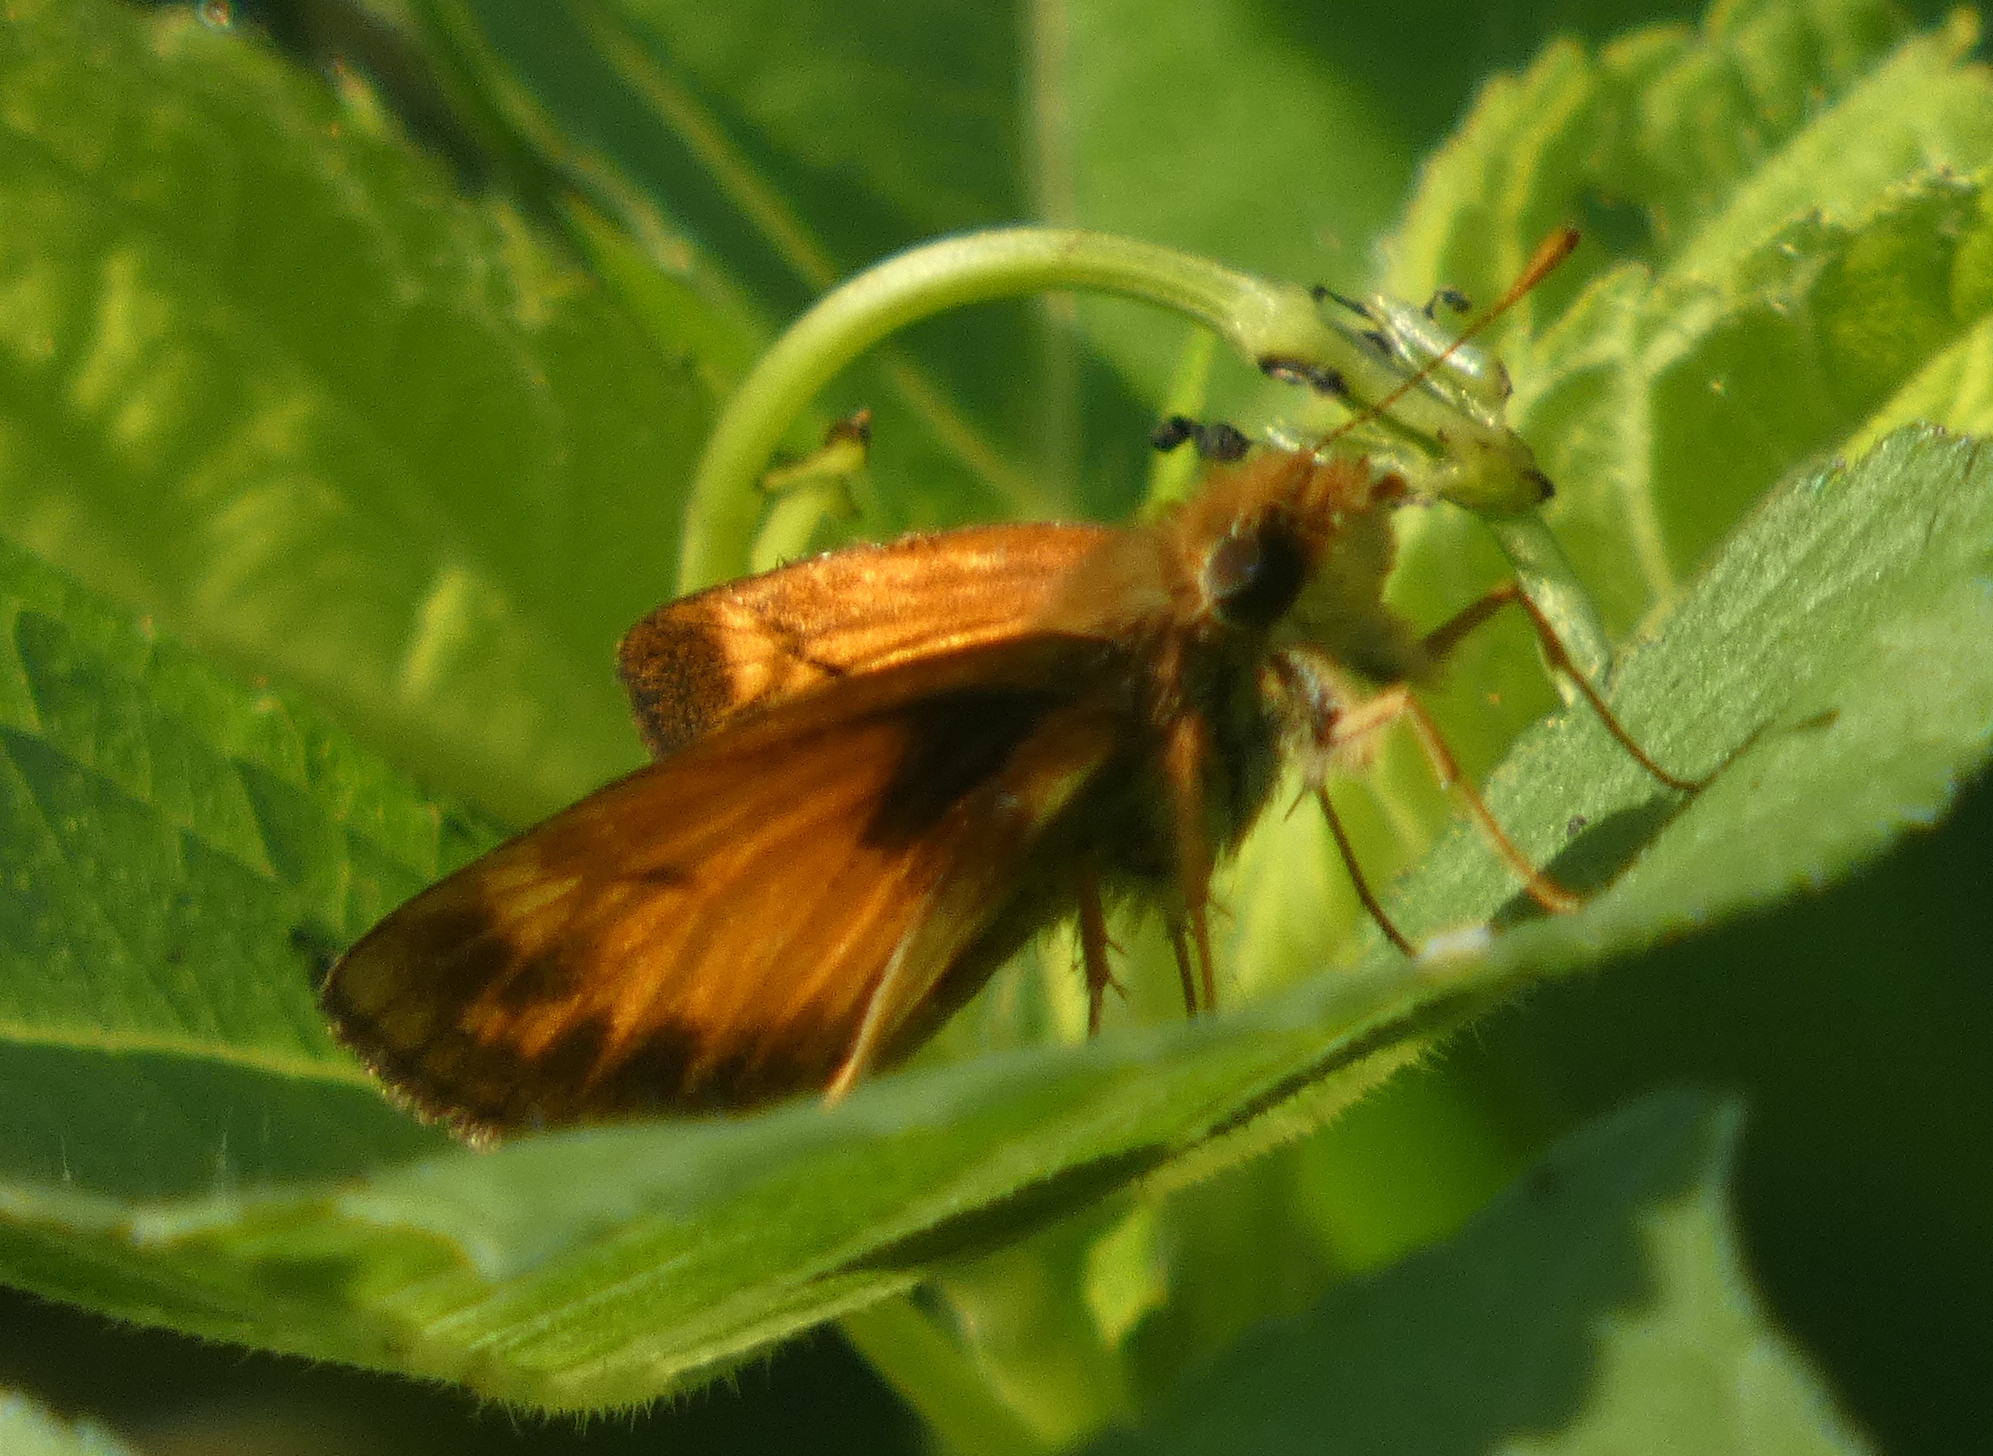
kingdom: Animalia
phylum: Arthropoda
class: Insecta
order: Lepidoptera
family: Hesperiidae
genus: Lon
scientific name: Lon zabulon
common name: Zabulon skipper
